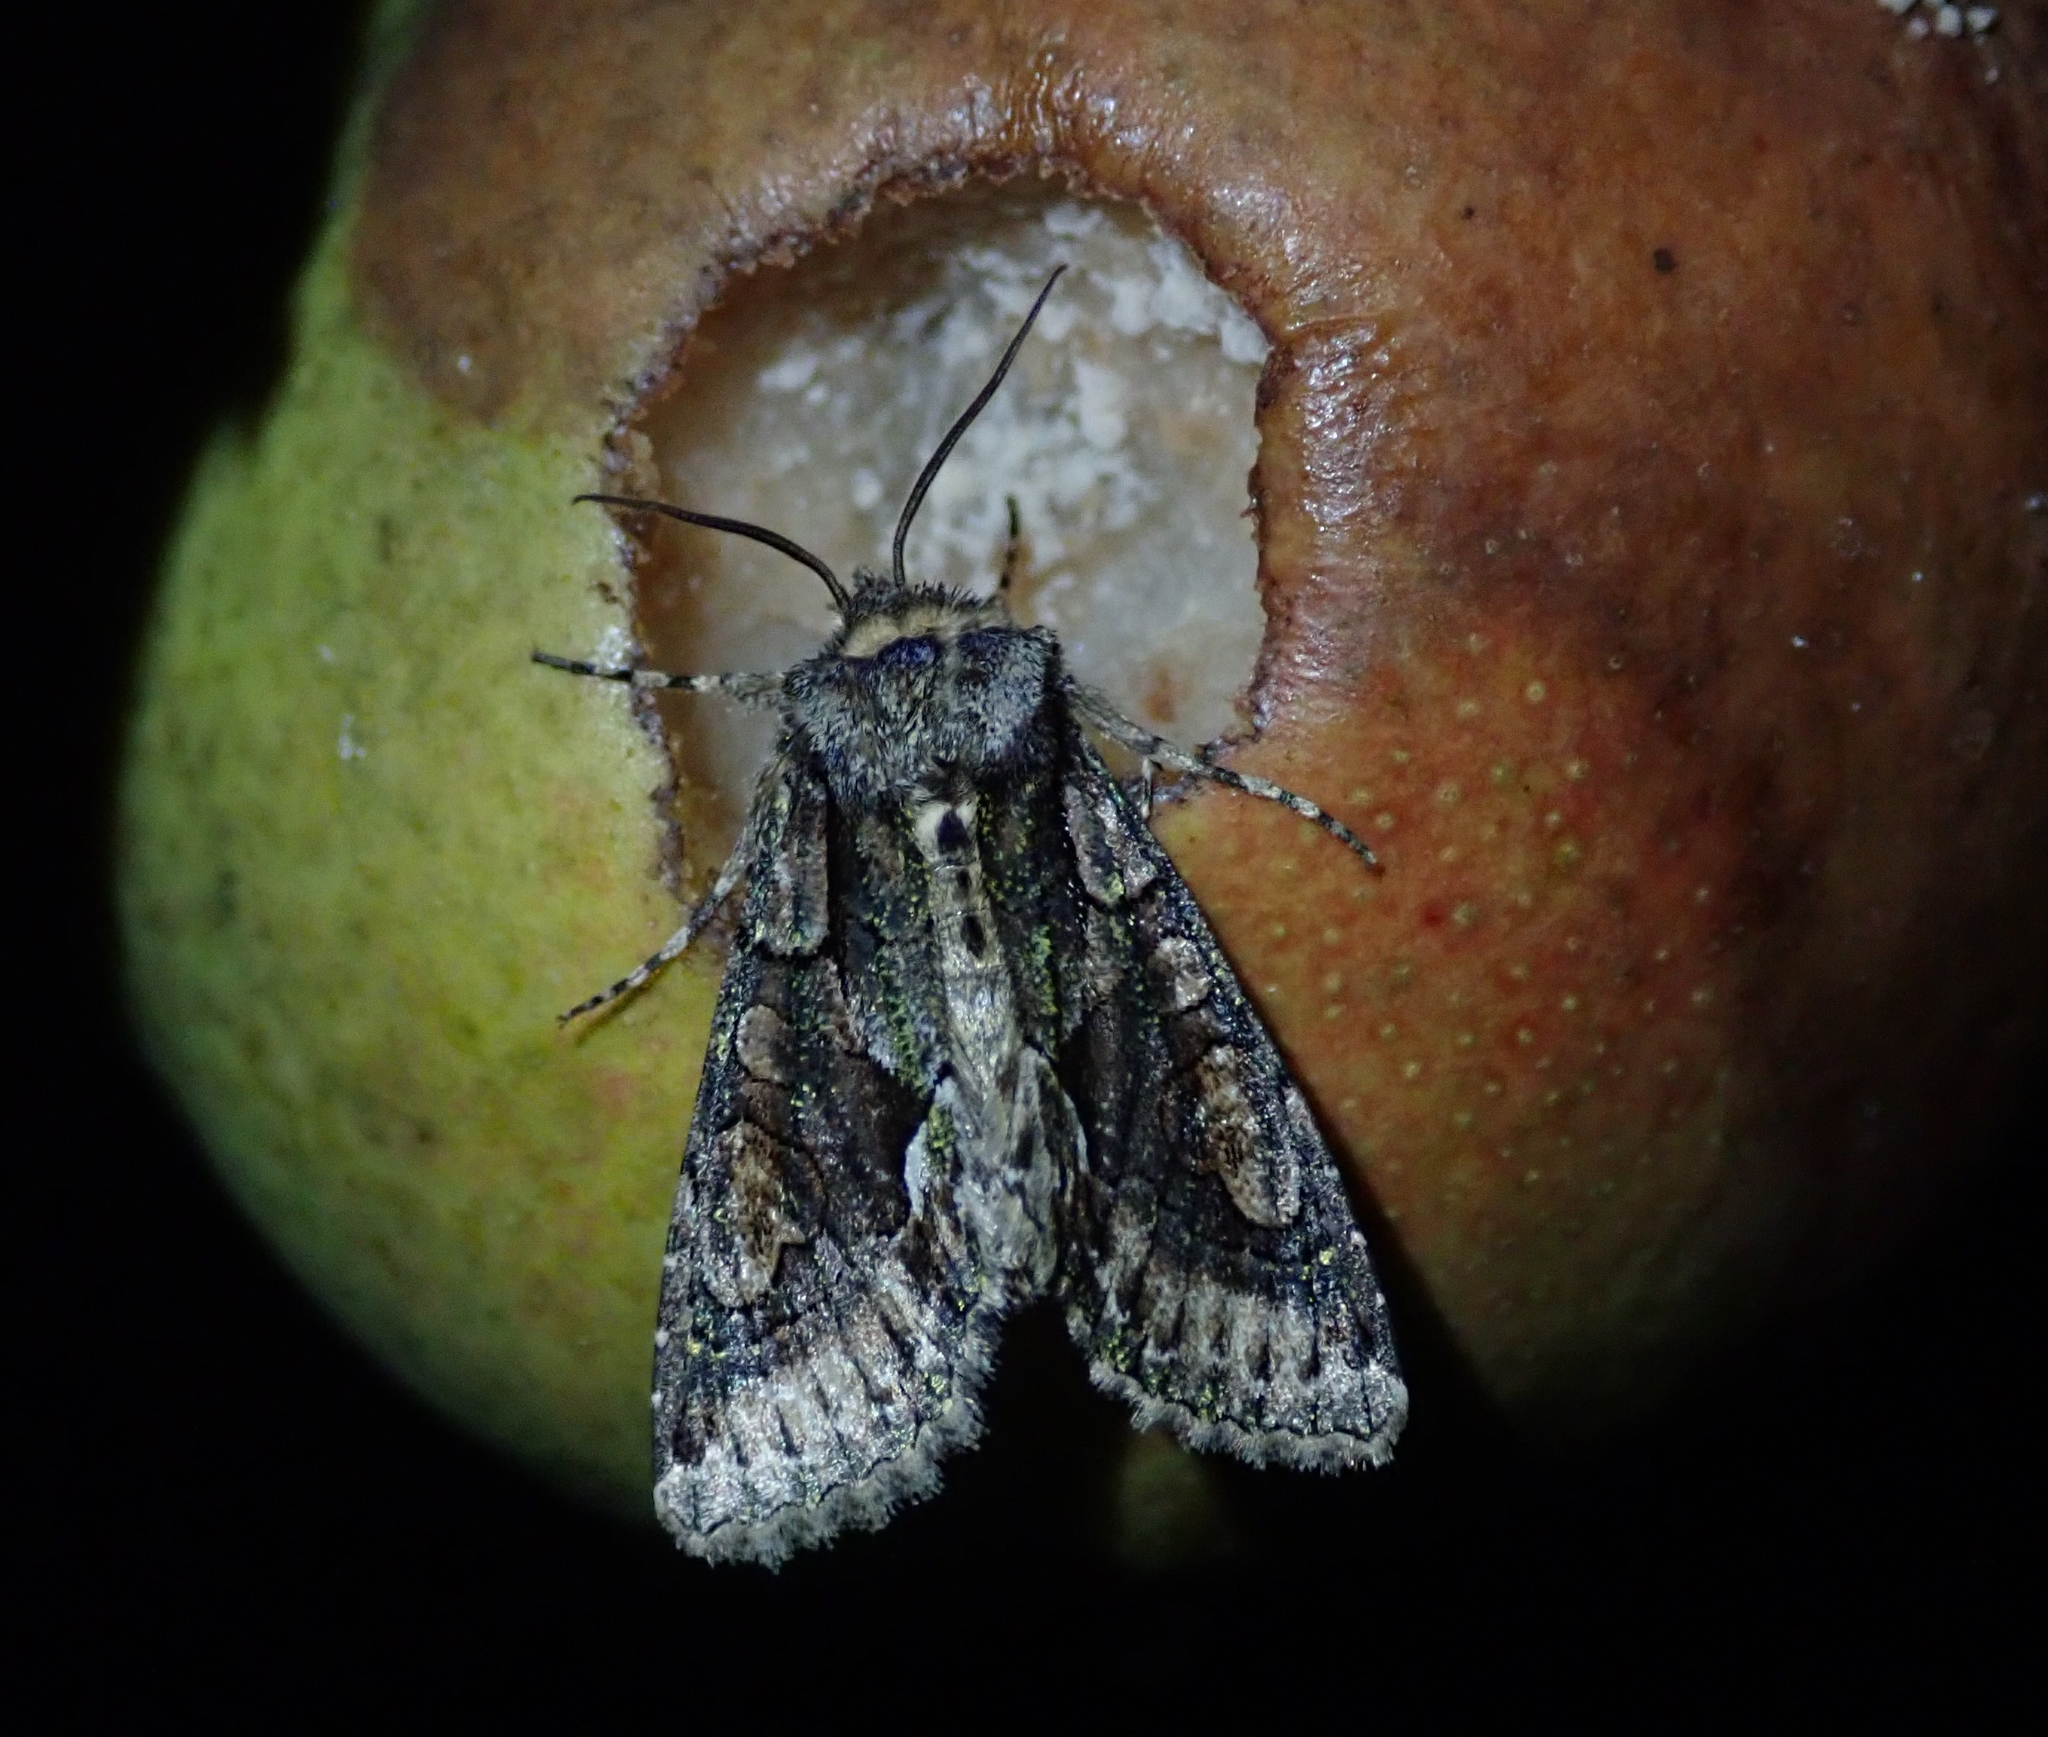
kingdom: Animalia
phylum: Arthropoda
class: Insecta
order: Lepidoptera
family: Noctuidae
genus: Allophyes
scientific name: Allophyes oxyacanthae
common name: Green-brindled crescent
